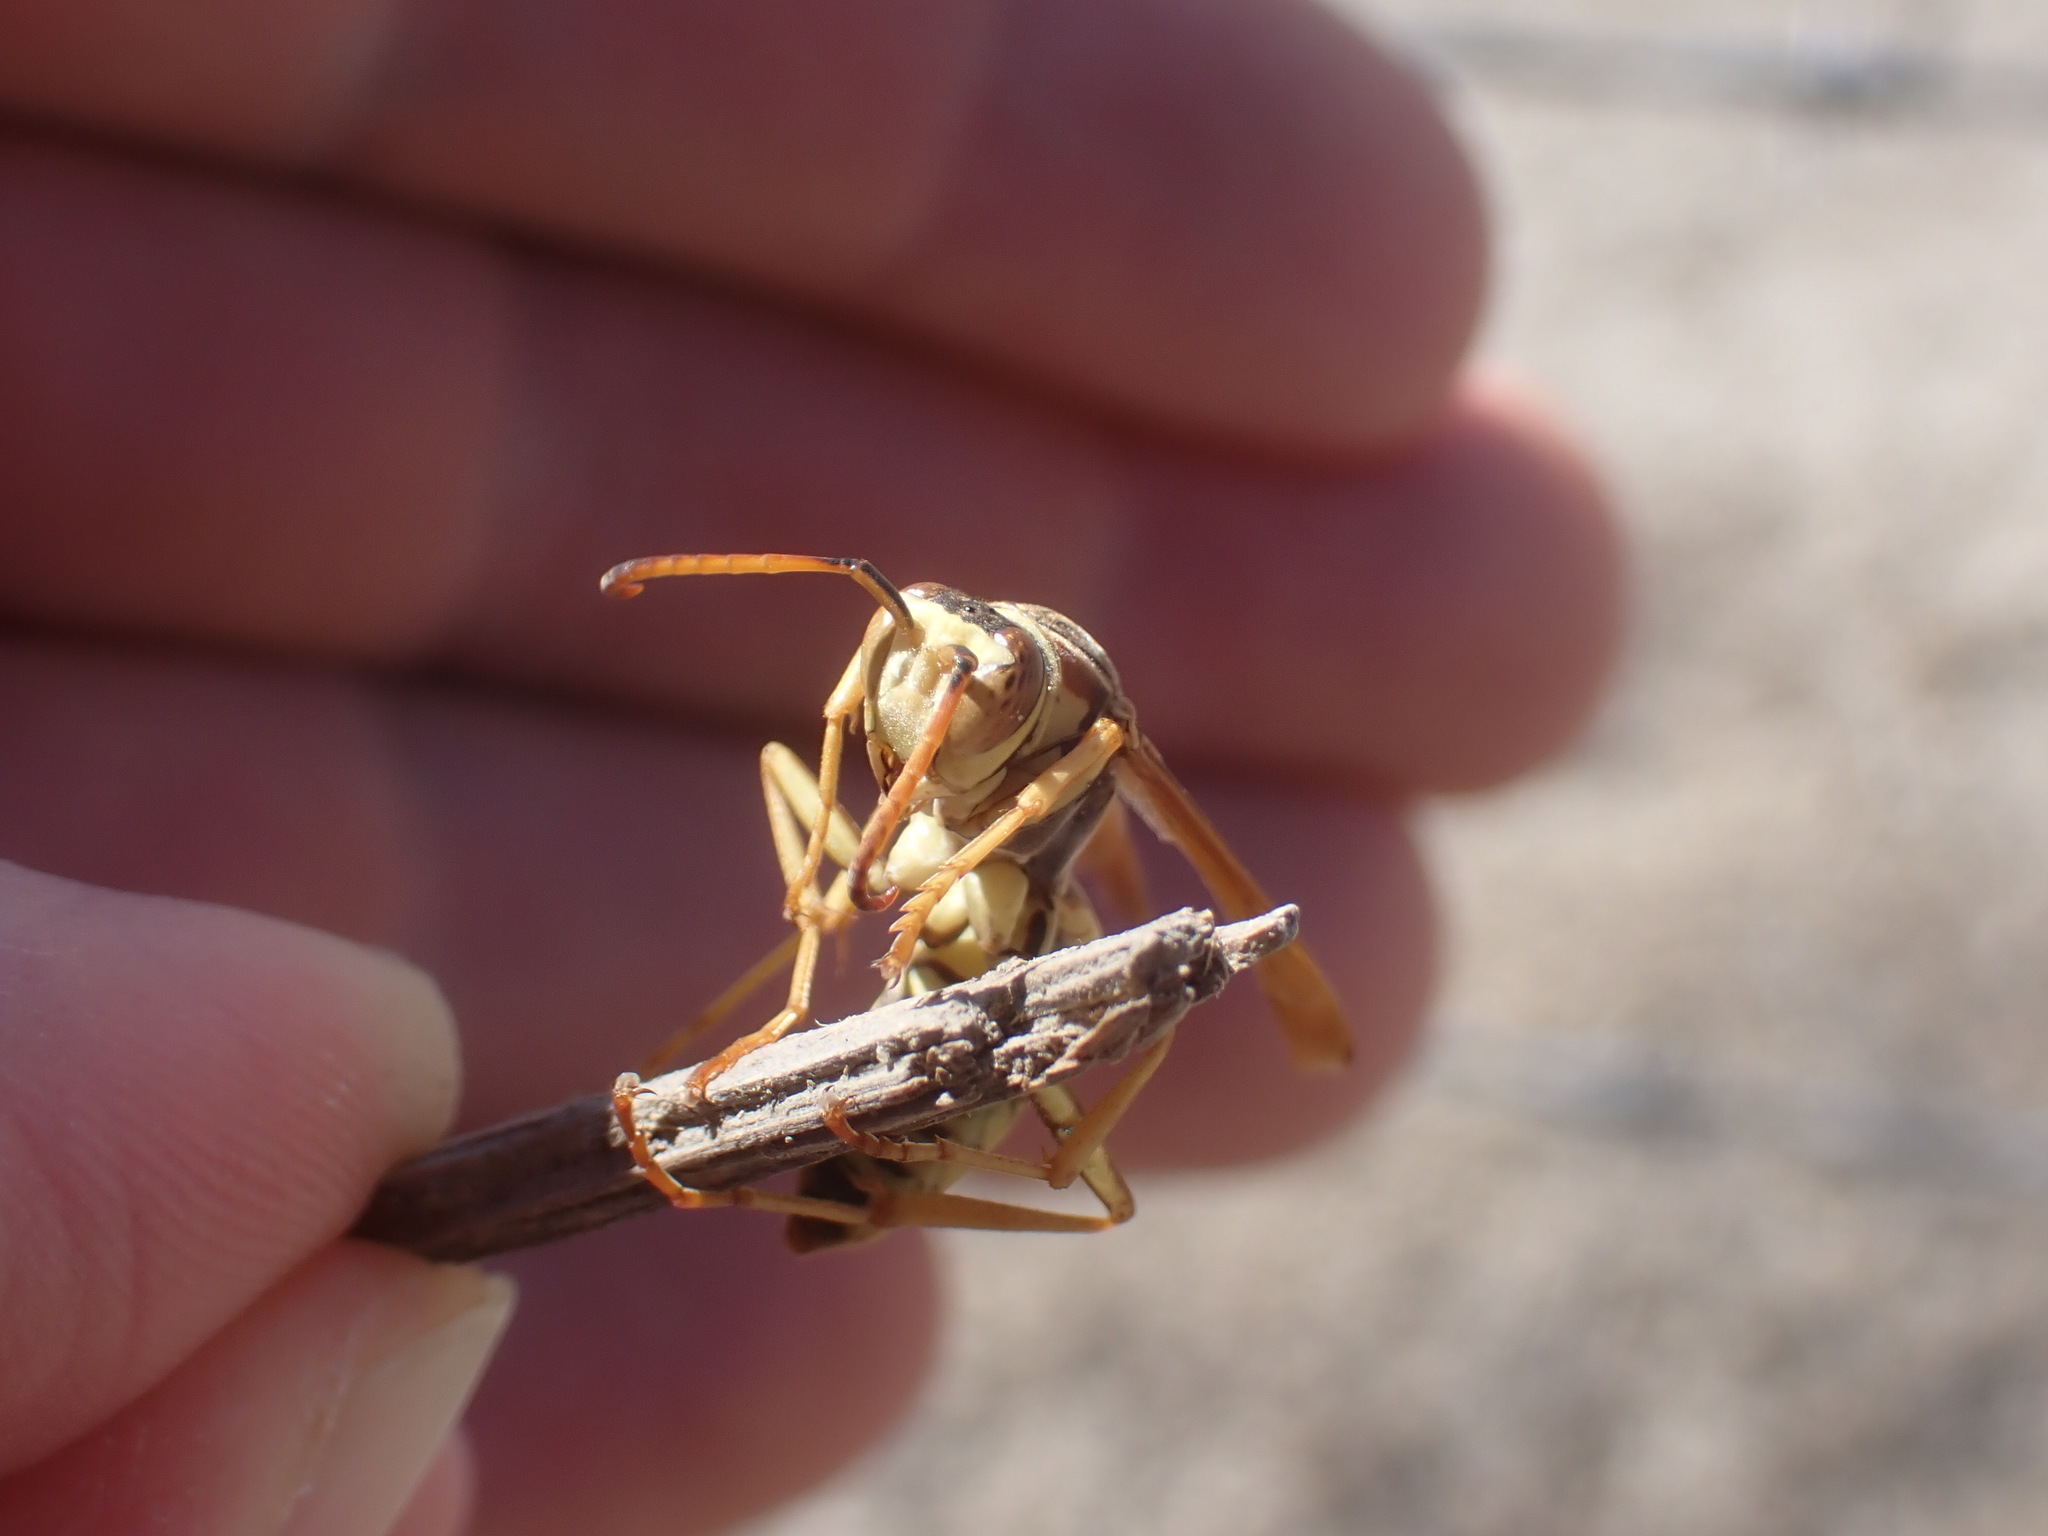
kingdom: Animalia
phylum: Arthropoda
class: Insecta
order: Hymenoptera
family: Eumenidae
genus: Polistes
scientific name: Polistes aurifer
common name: Paper wasp
